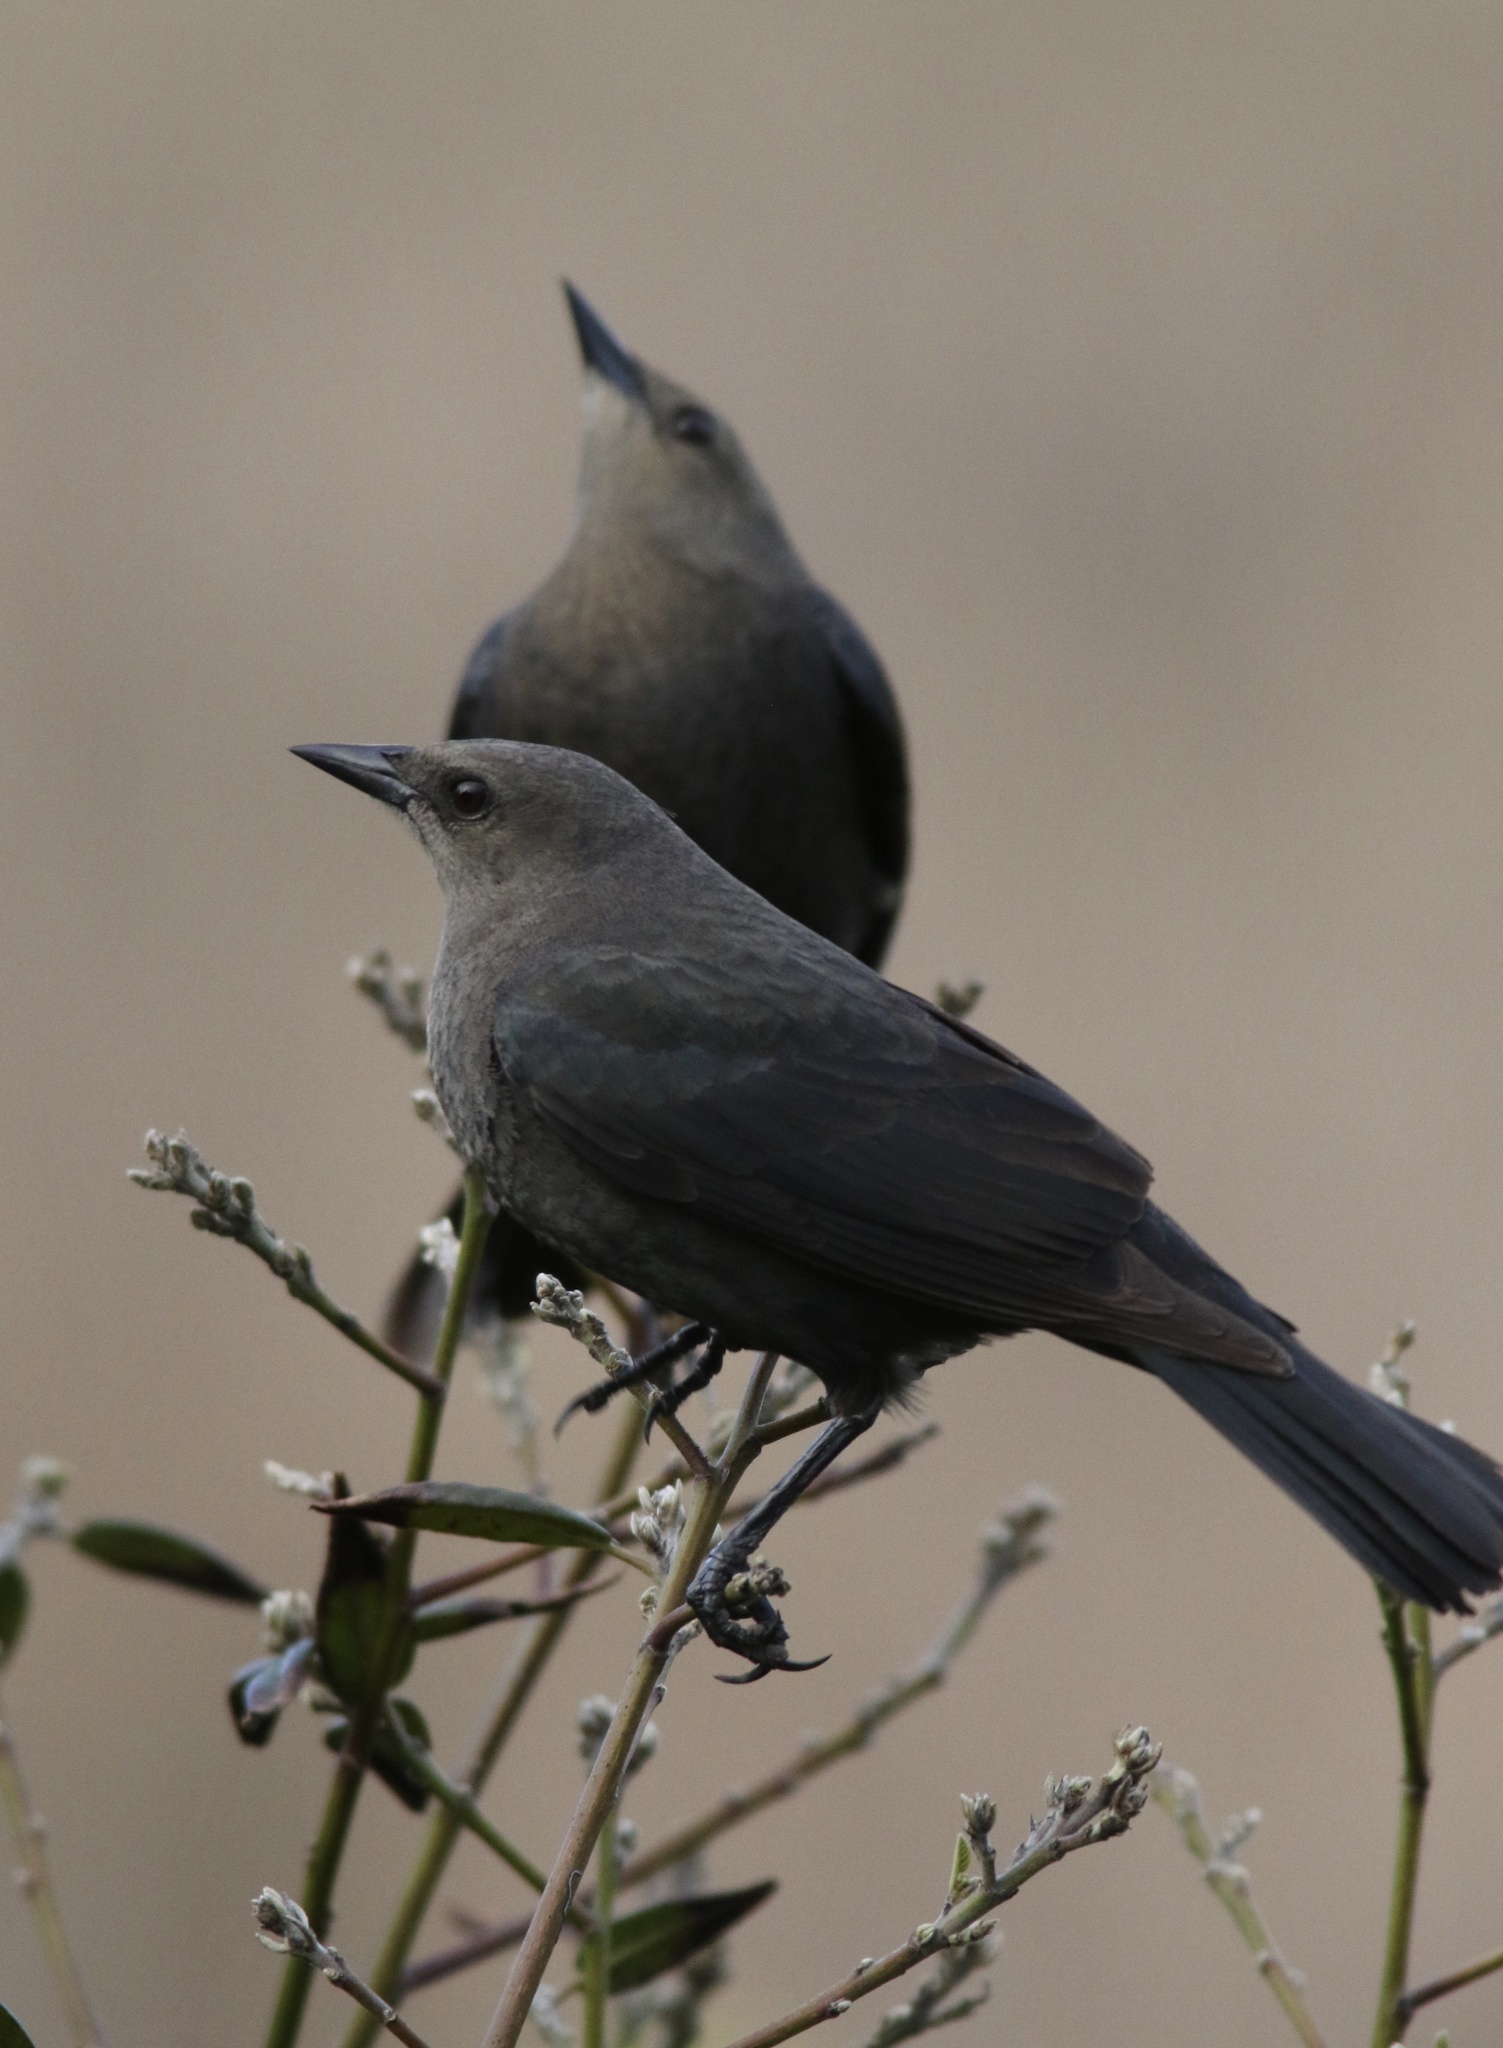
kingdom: Animalia
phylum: Chordata
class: Aves
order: Passeriformes
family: Icteridae
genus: Euphagus
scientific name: Euphagus cyanocephalus
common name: Brewer's blackbird
